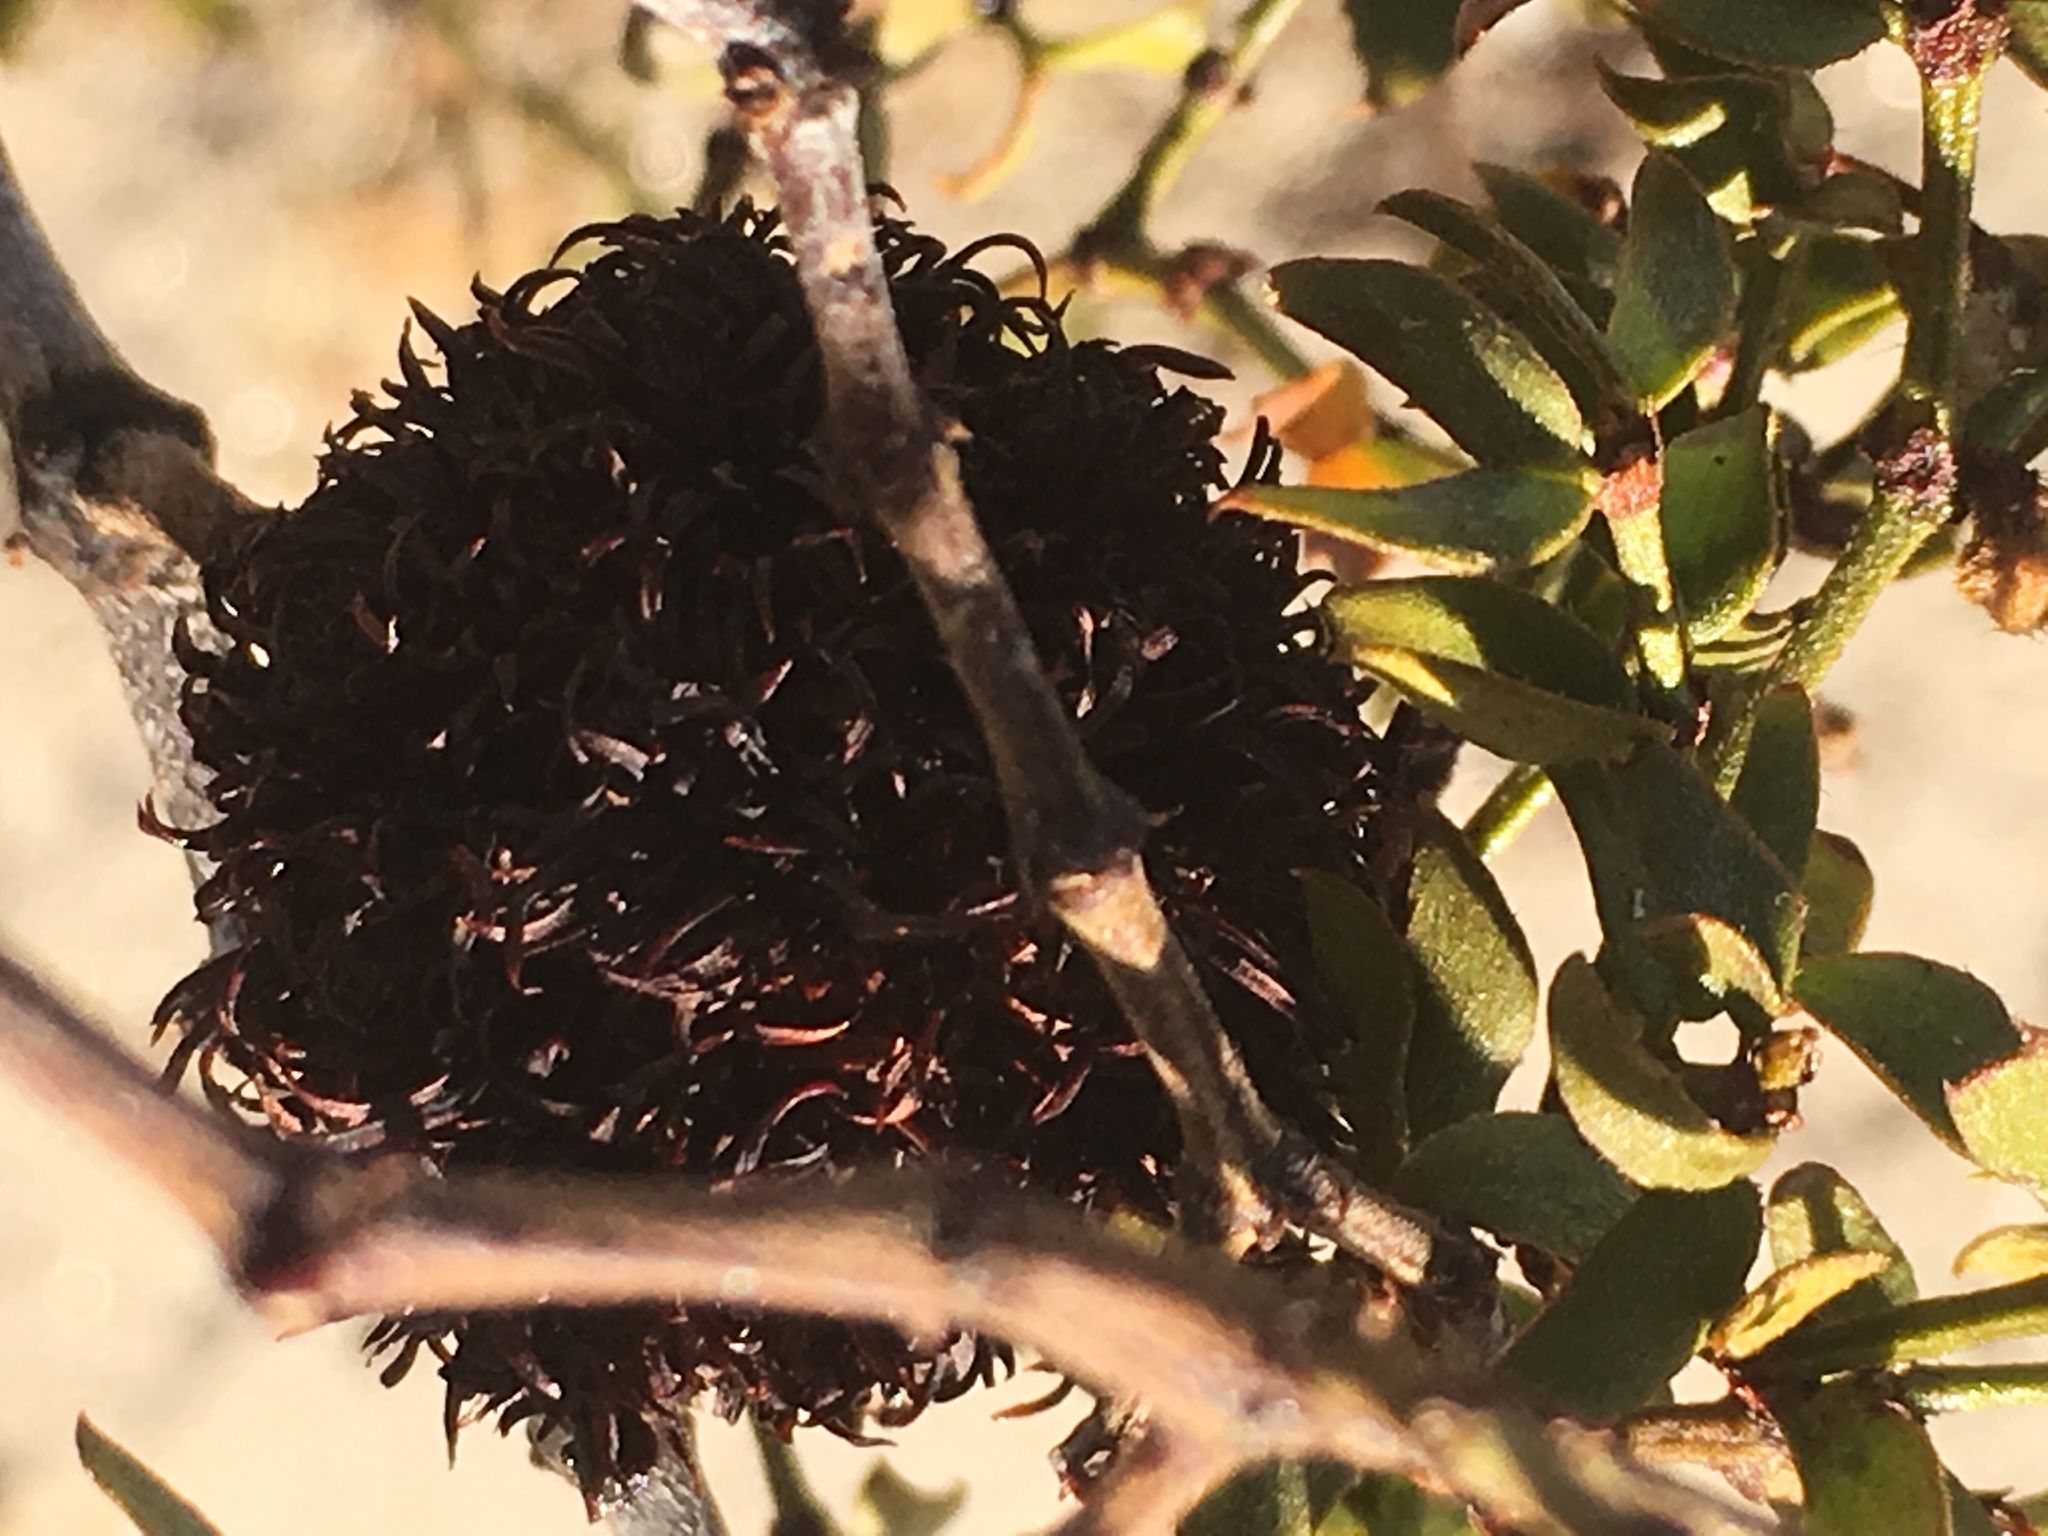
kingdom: Animalia
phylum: Arthropoda
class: Insecta
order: Diptera
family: Cecidomyiidae
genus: Asphondylia
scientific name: Asphondylia auripila
